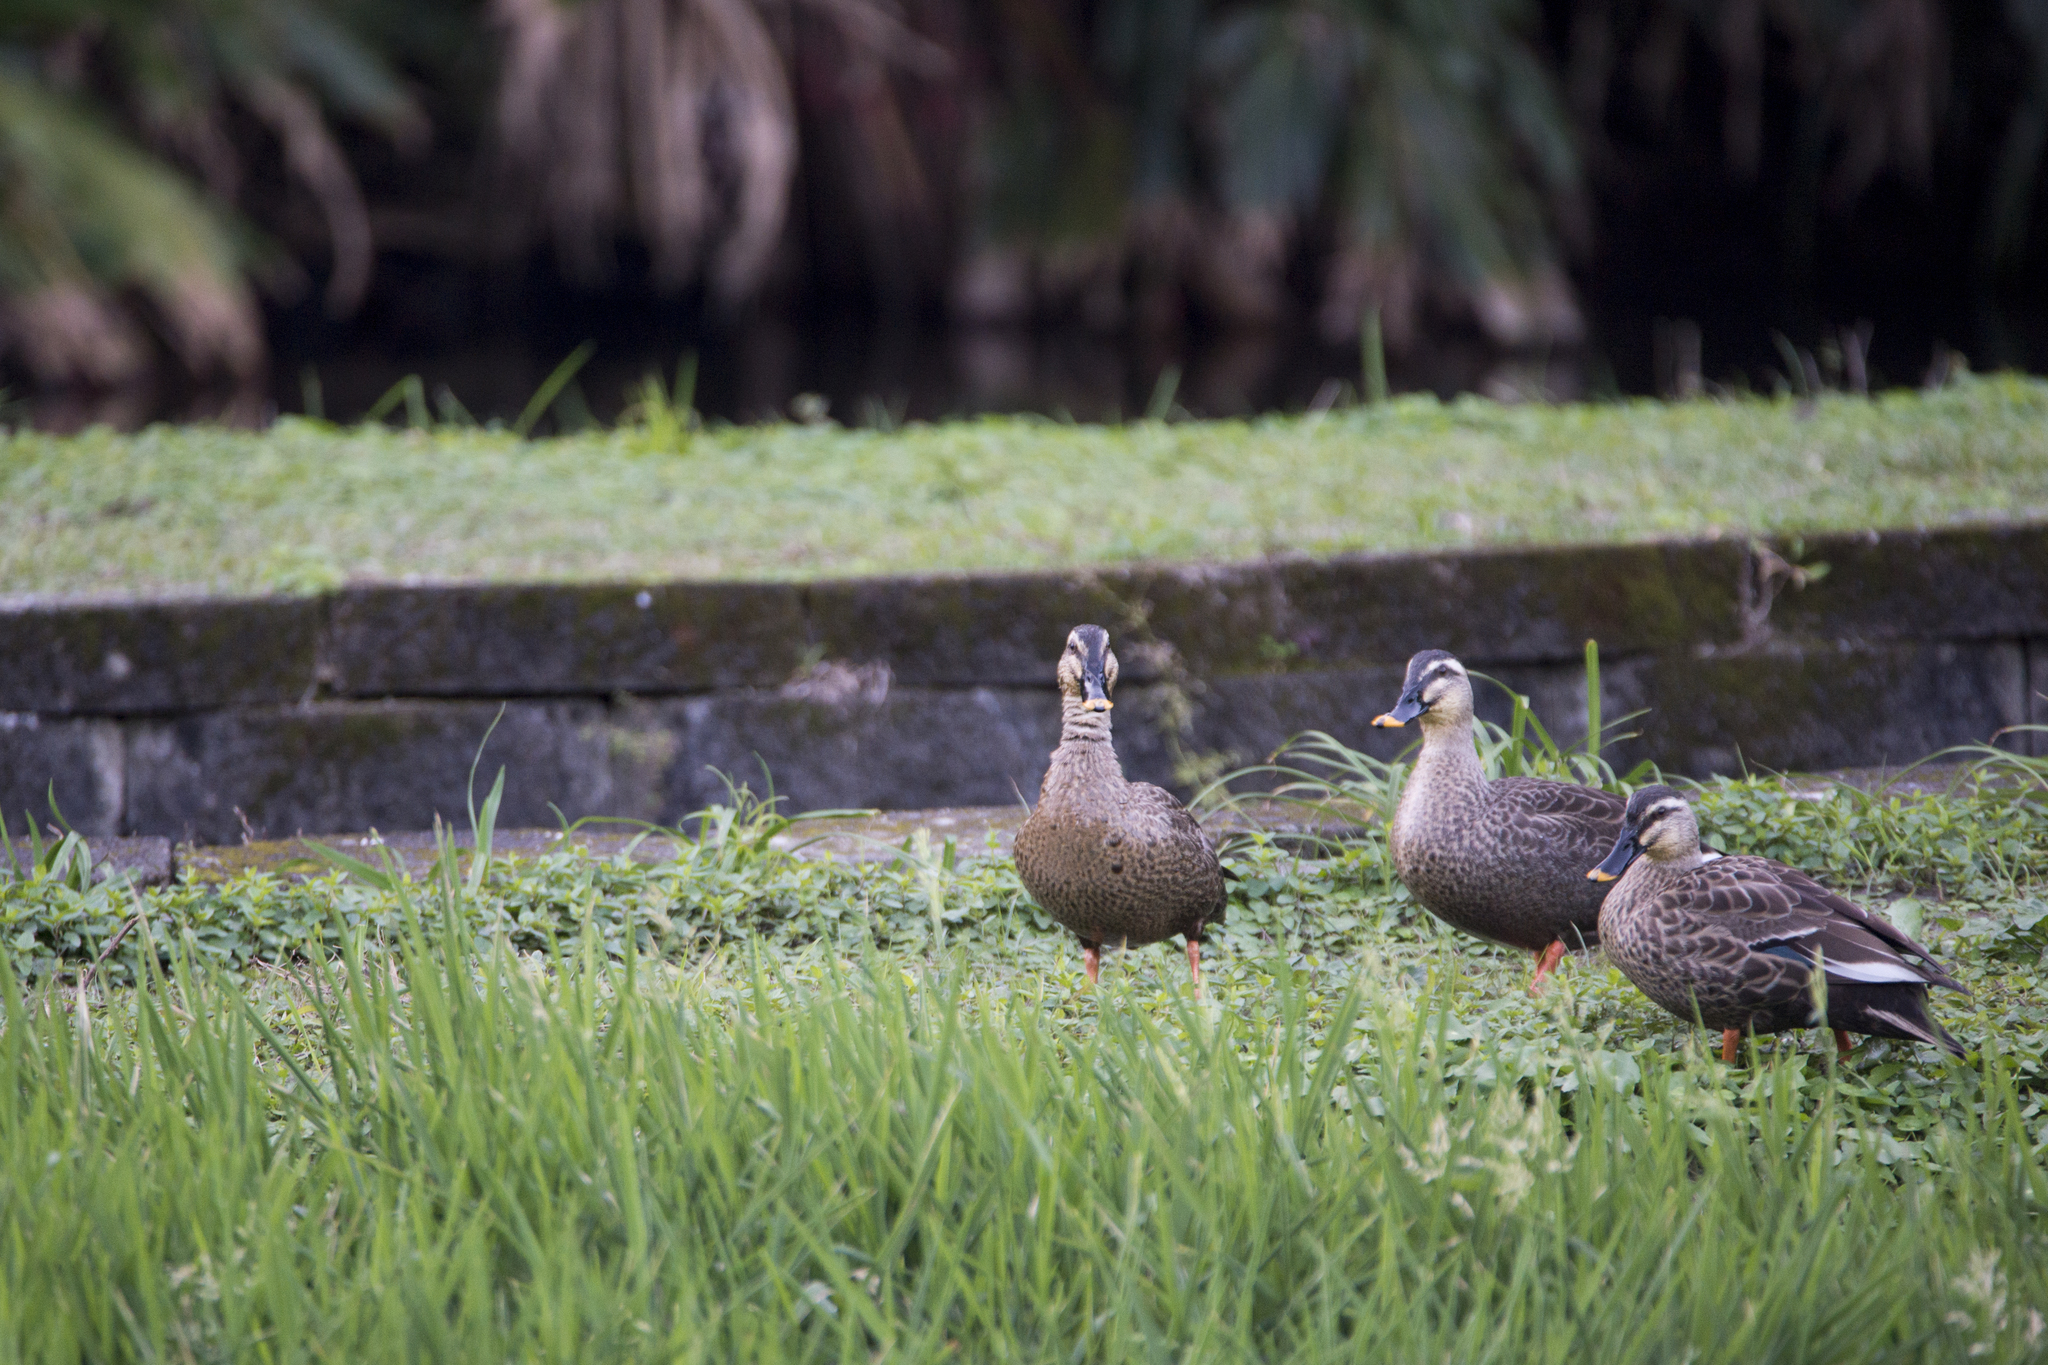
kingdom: Animalia
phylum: Chordata
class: Aves
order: Anseriformes
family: Anatidae
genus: Anas
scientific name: Anas zonorhyncha
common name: Eastern spot-billed duck
